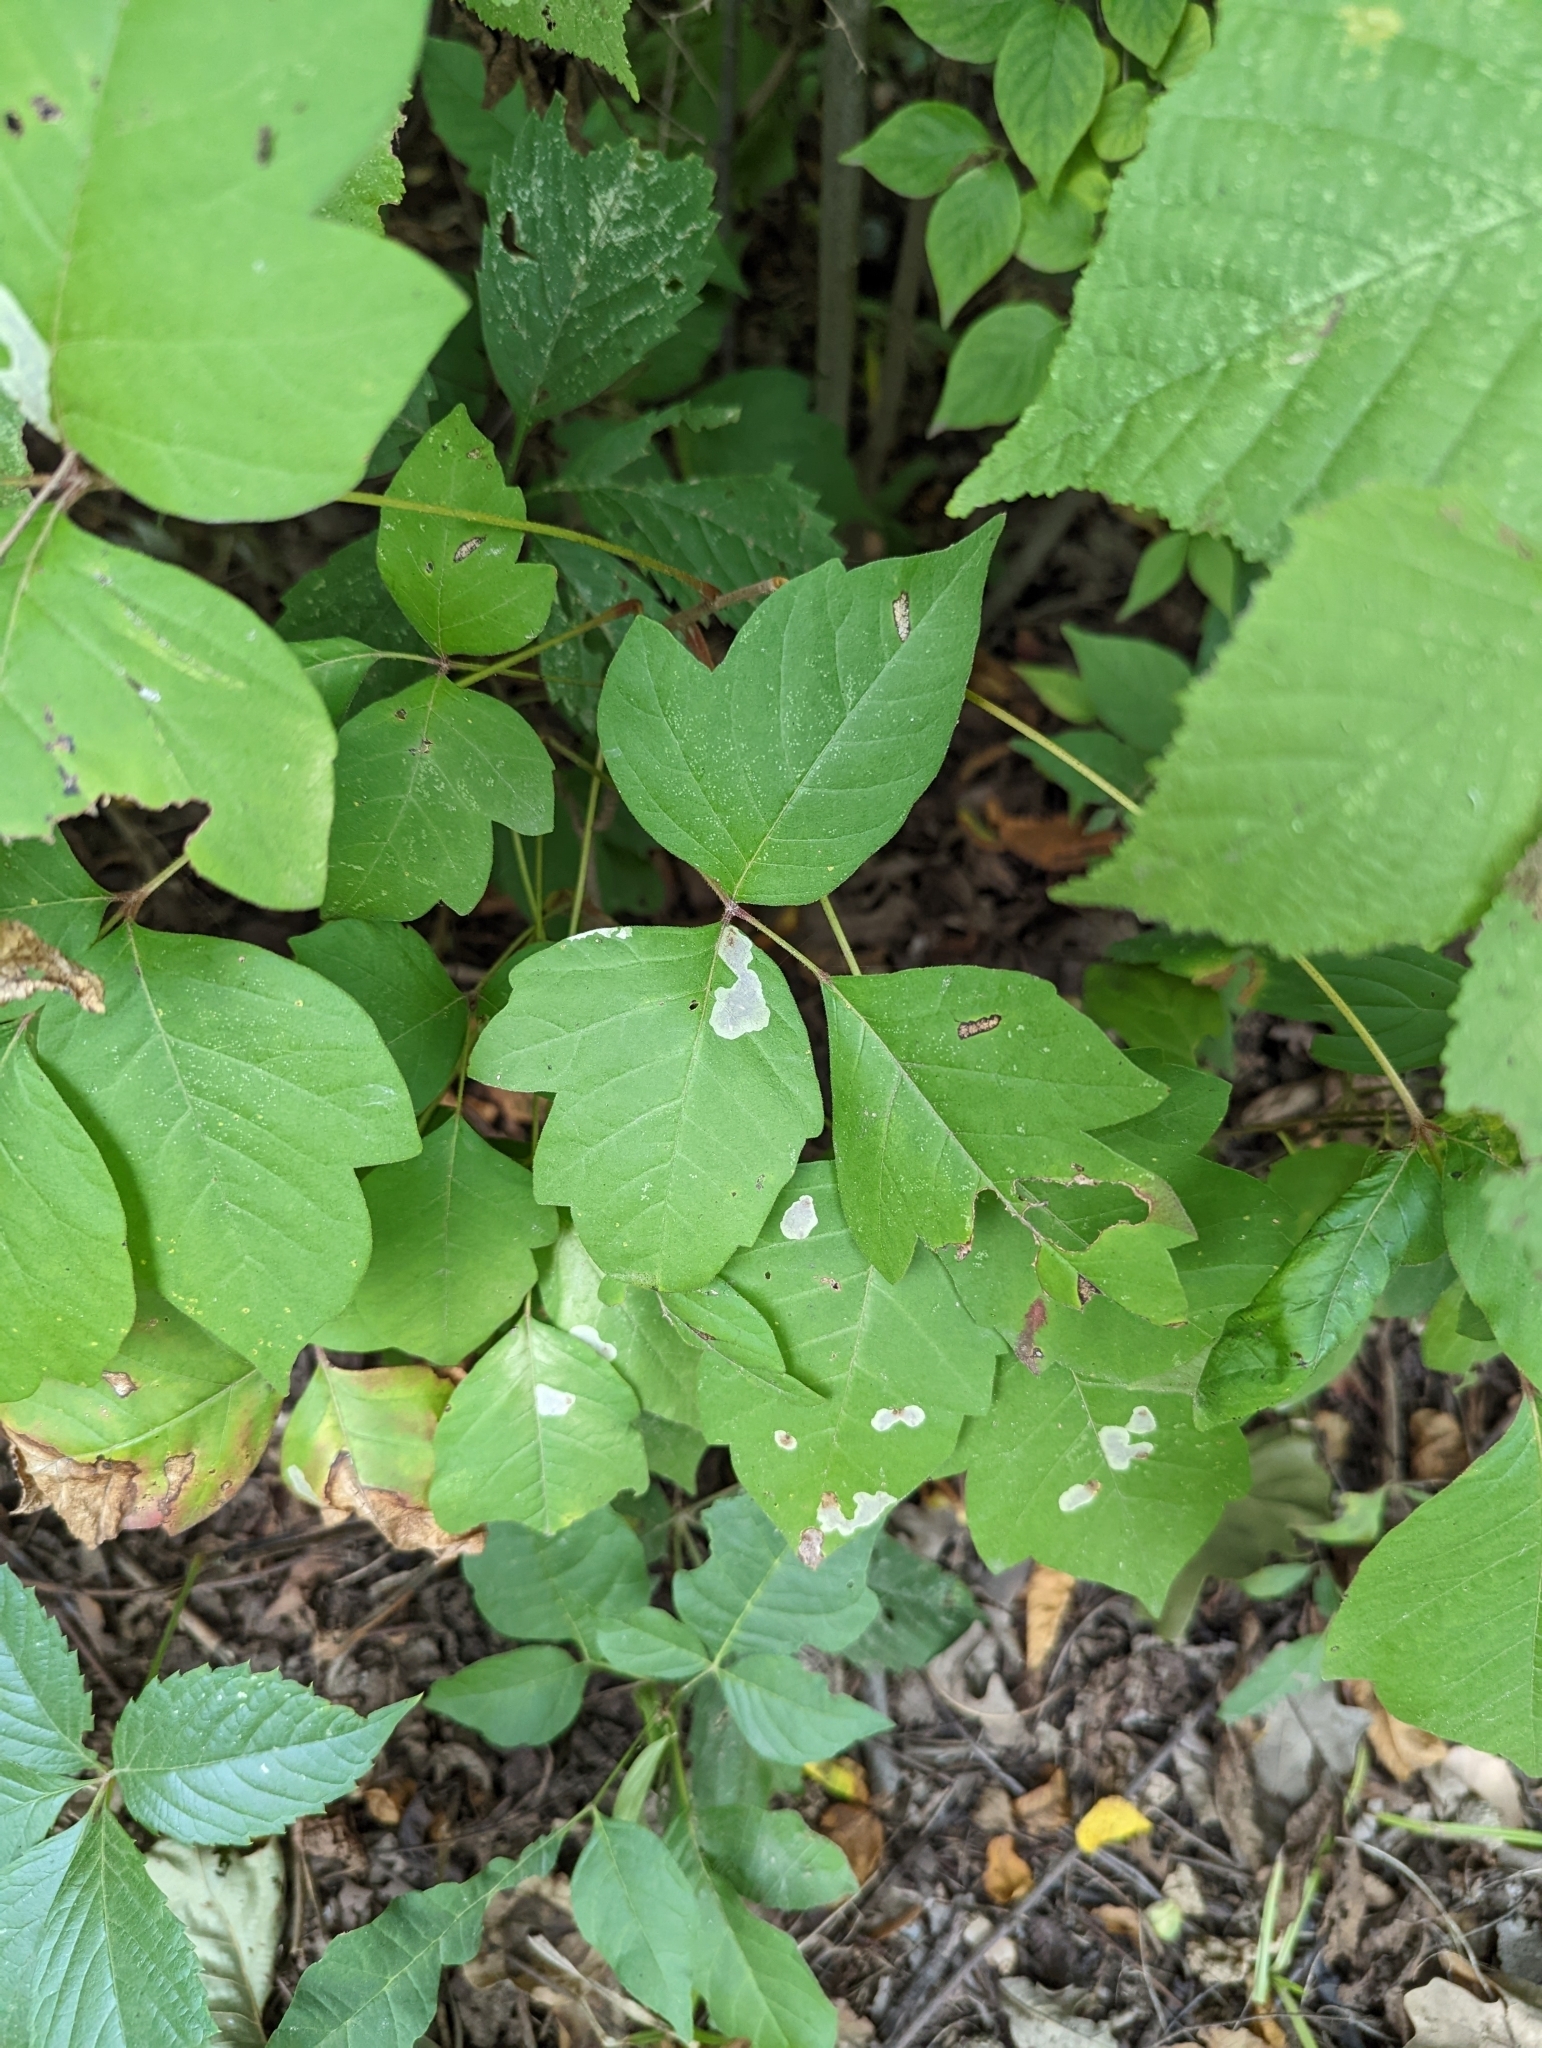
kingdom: Plantae
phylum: Tracheophyta
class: Magnoliopsida
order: Sapindales
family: Anacardiaceae
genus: Toxicodendron
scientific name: Toxicodendron radicans
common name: Poison ivy
